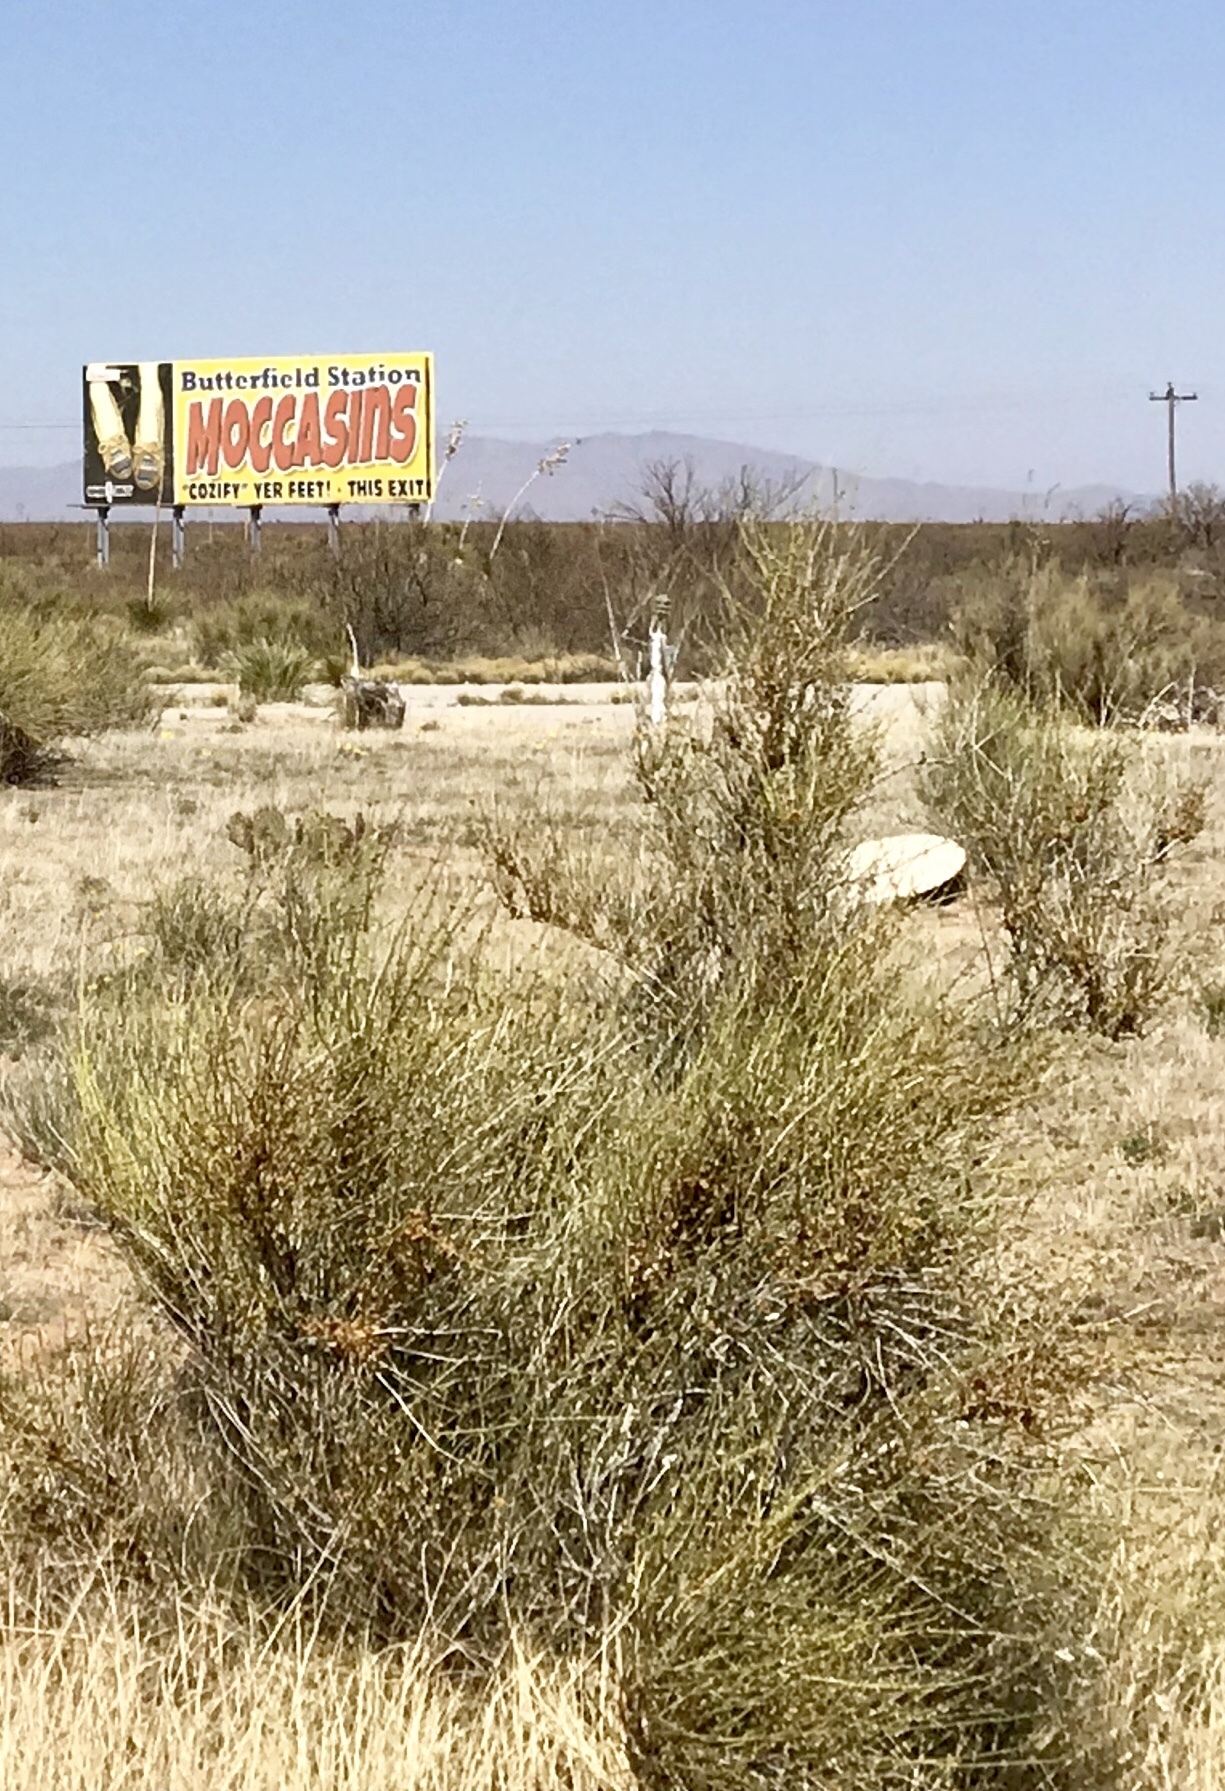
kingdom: Plantae
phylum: Tracheophyta
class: Gnetopsida
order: Ephedrales
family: Ephedraceae
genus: Ephedra
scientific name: Ephedra trifurca
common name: Mexican-tea
